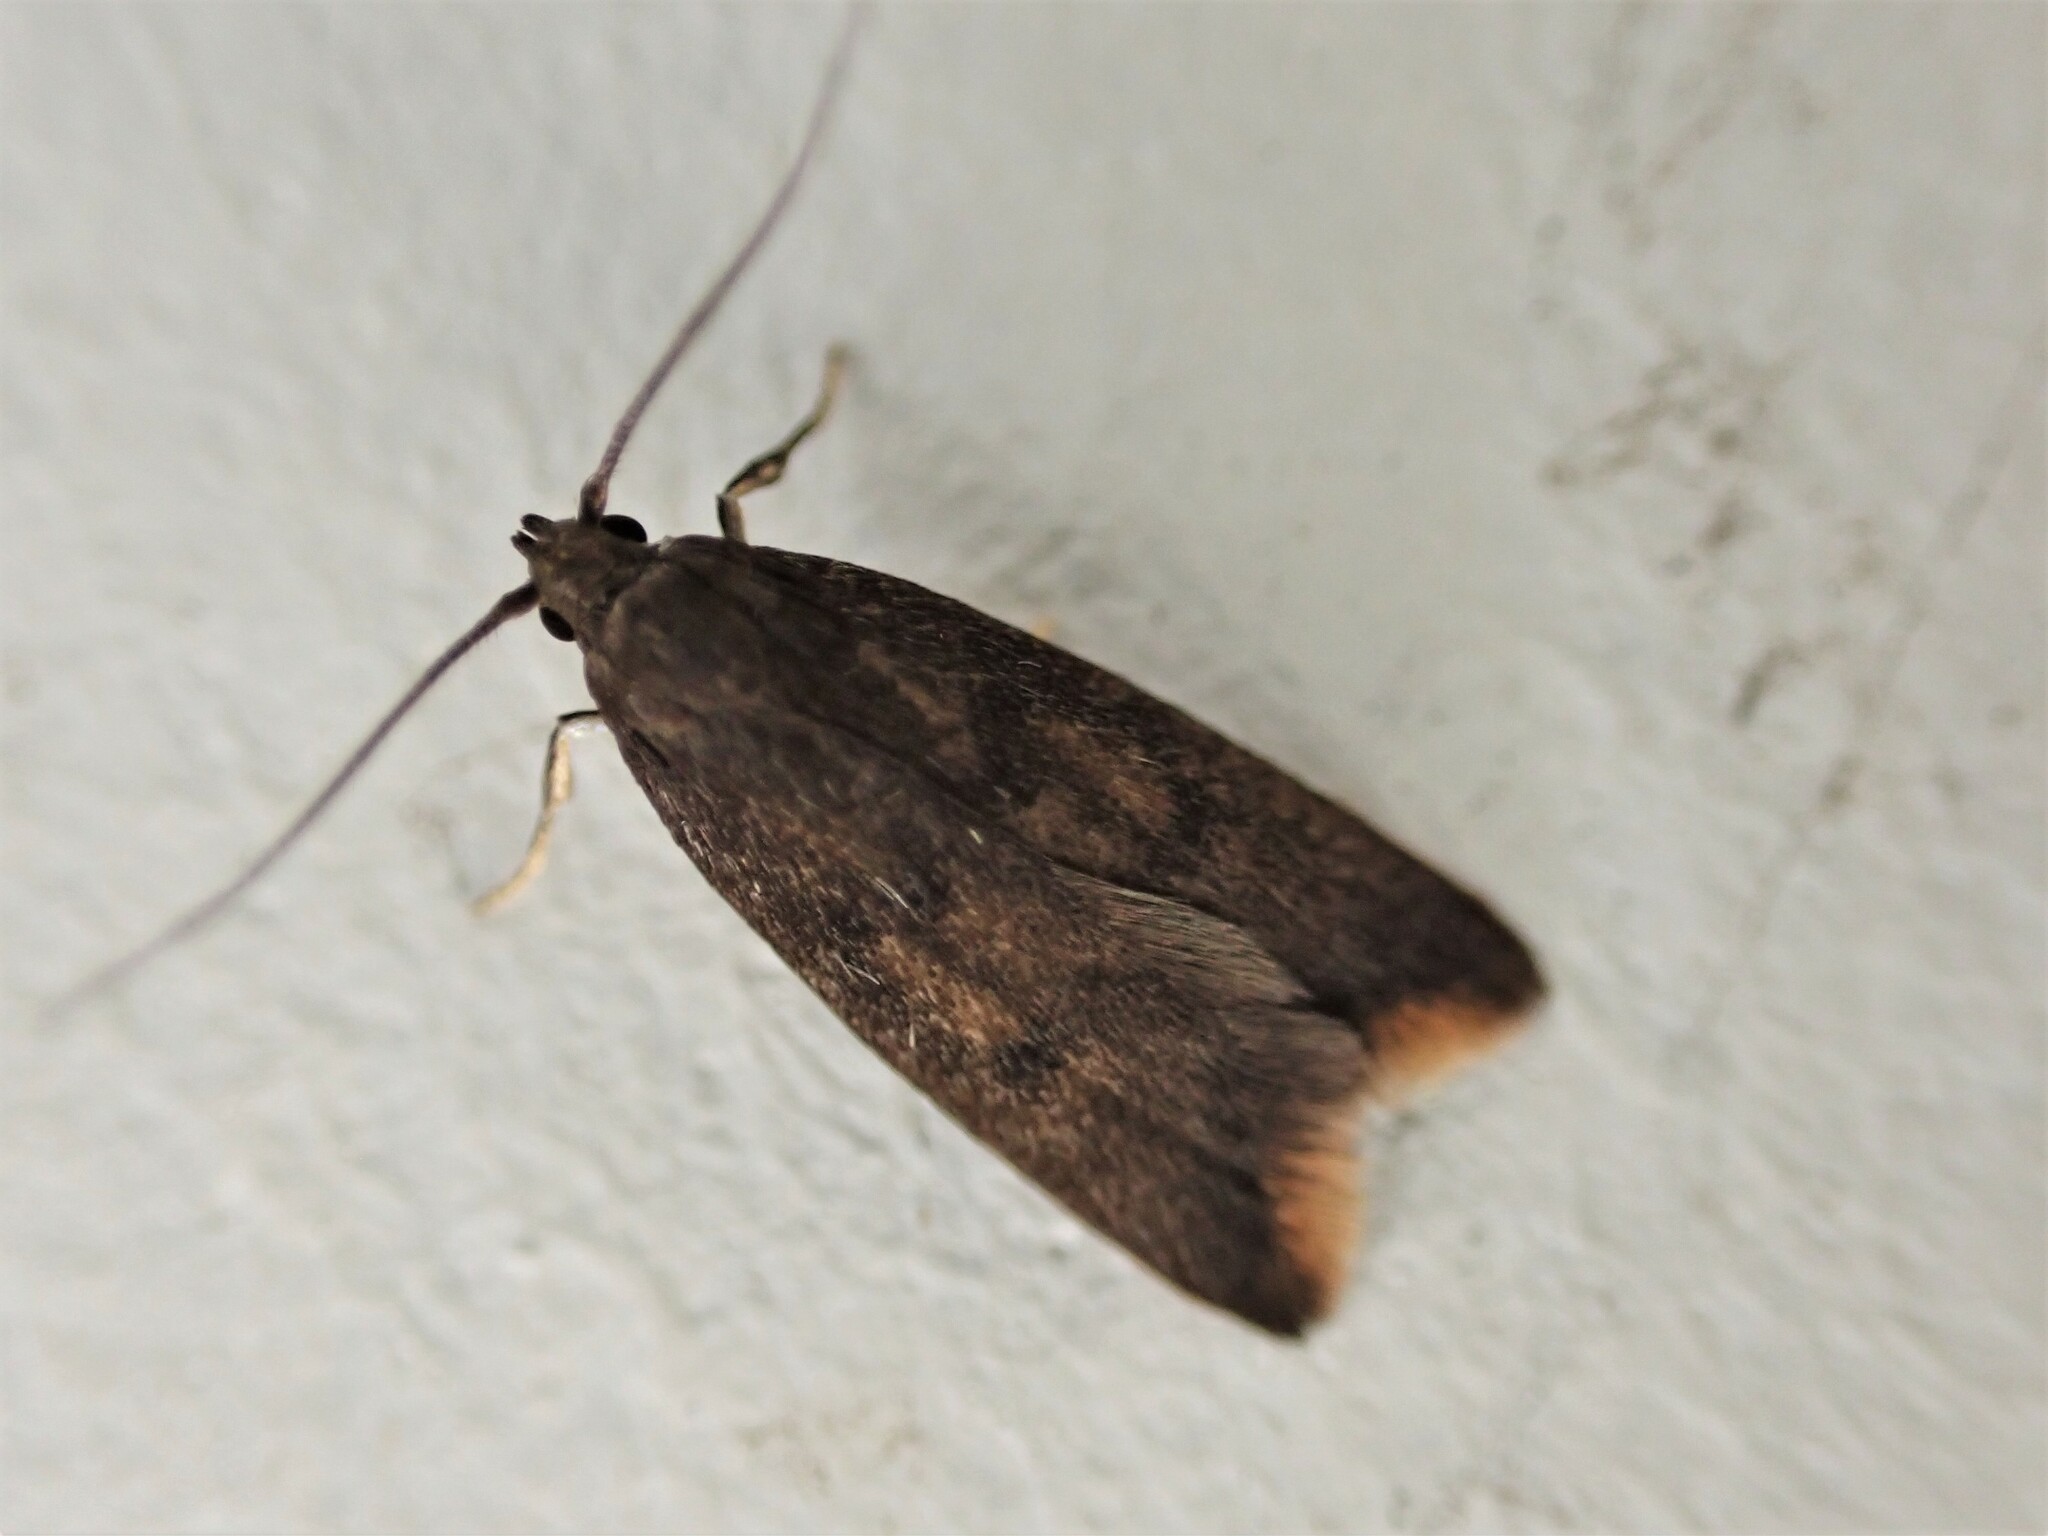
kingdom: Animalia
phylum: Arthropoda
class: Insecta
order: Lepidoptera
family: Oecophoridae
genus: Tachystola
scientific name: Tachystola acroxantha
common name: Ruddy streak
